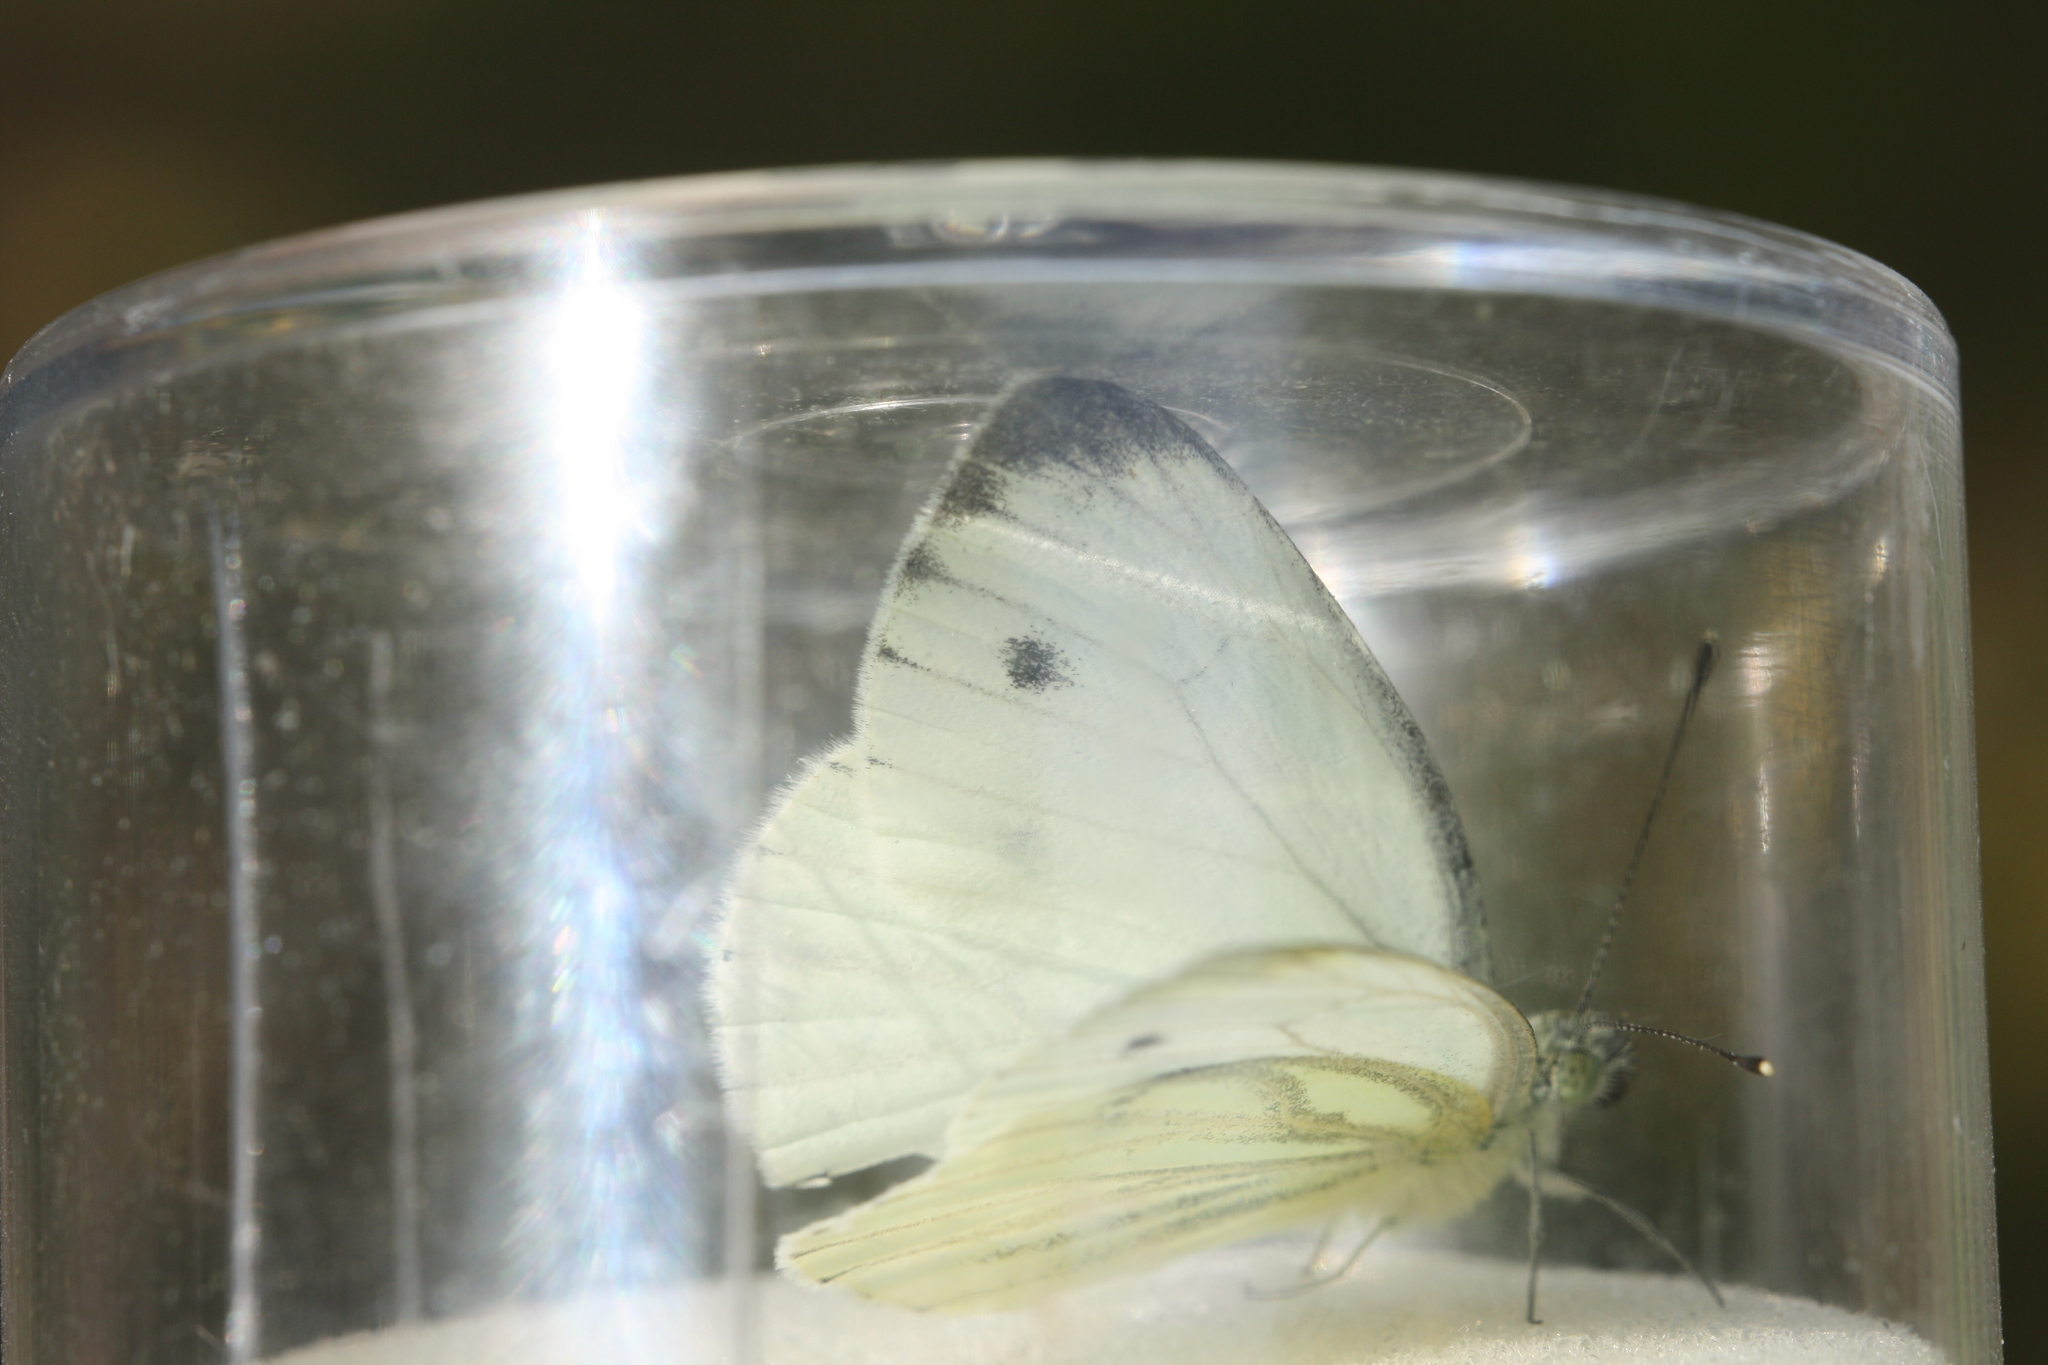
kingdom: Animalia
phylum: Arthropoda
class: Insecta
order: Lepidoptera
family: Pieridae
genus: Pieris
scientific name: Pieris napi
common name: Green-veined white
